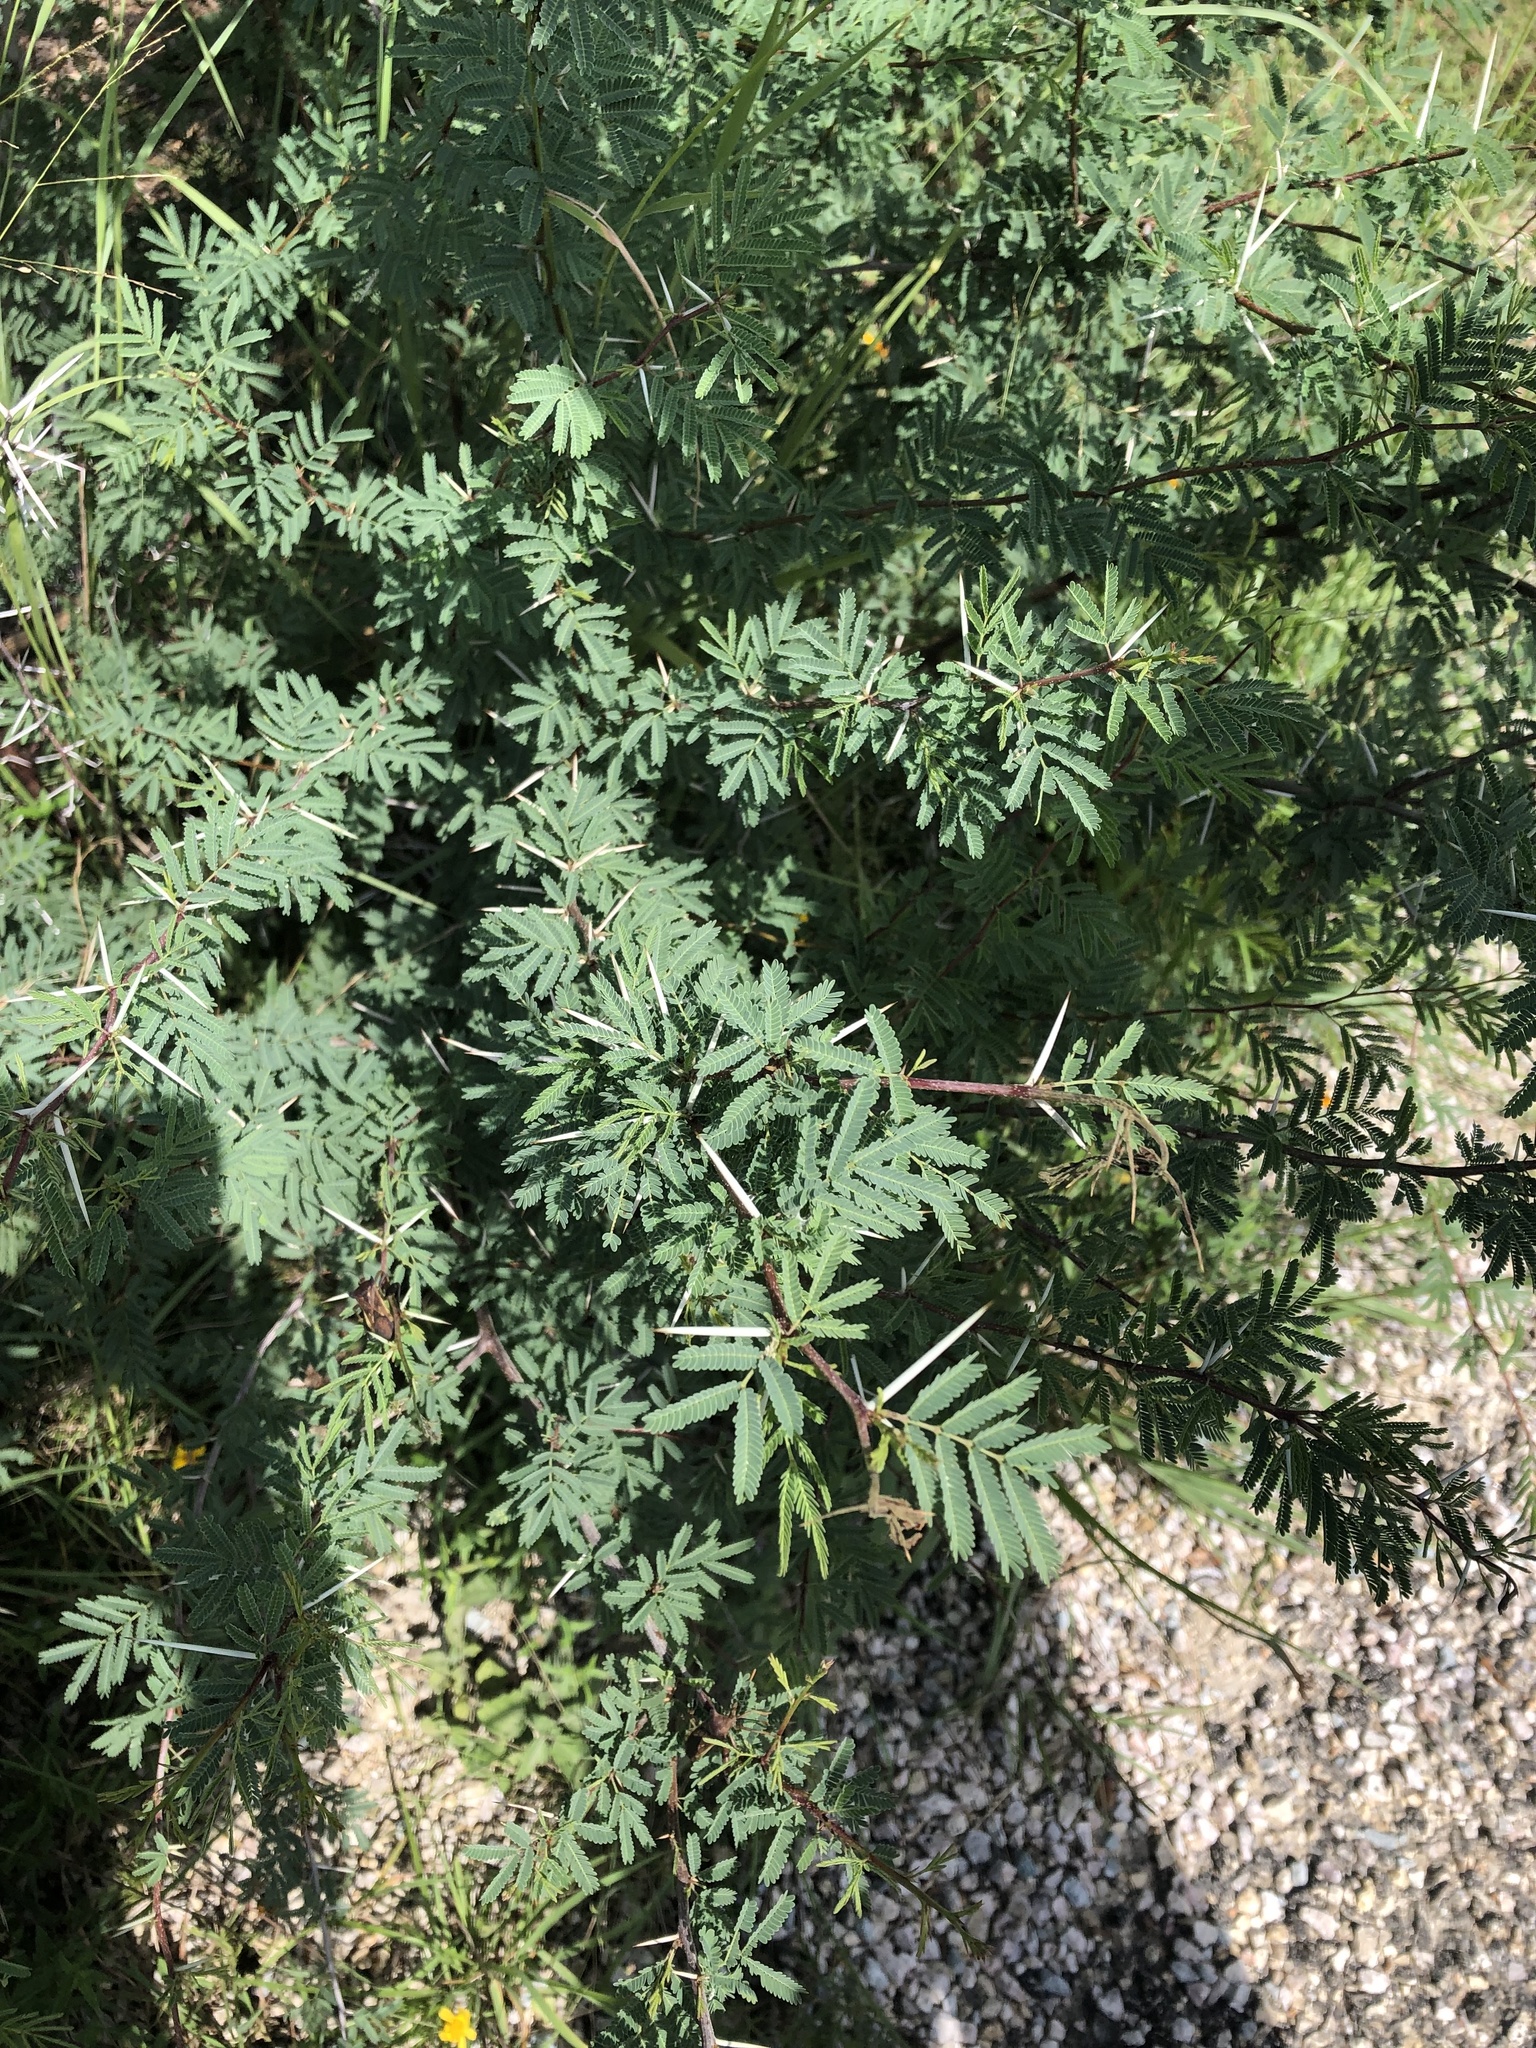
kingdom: Plantae
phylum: Tracheophyta
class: Magnoliopsida
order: Fabales
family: Fabaceae
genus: Vachellia
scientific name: Vachellia farnesiana
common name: Sweet acacia
